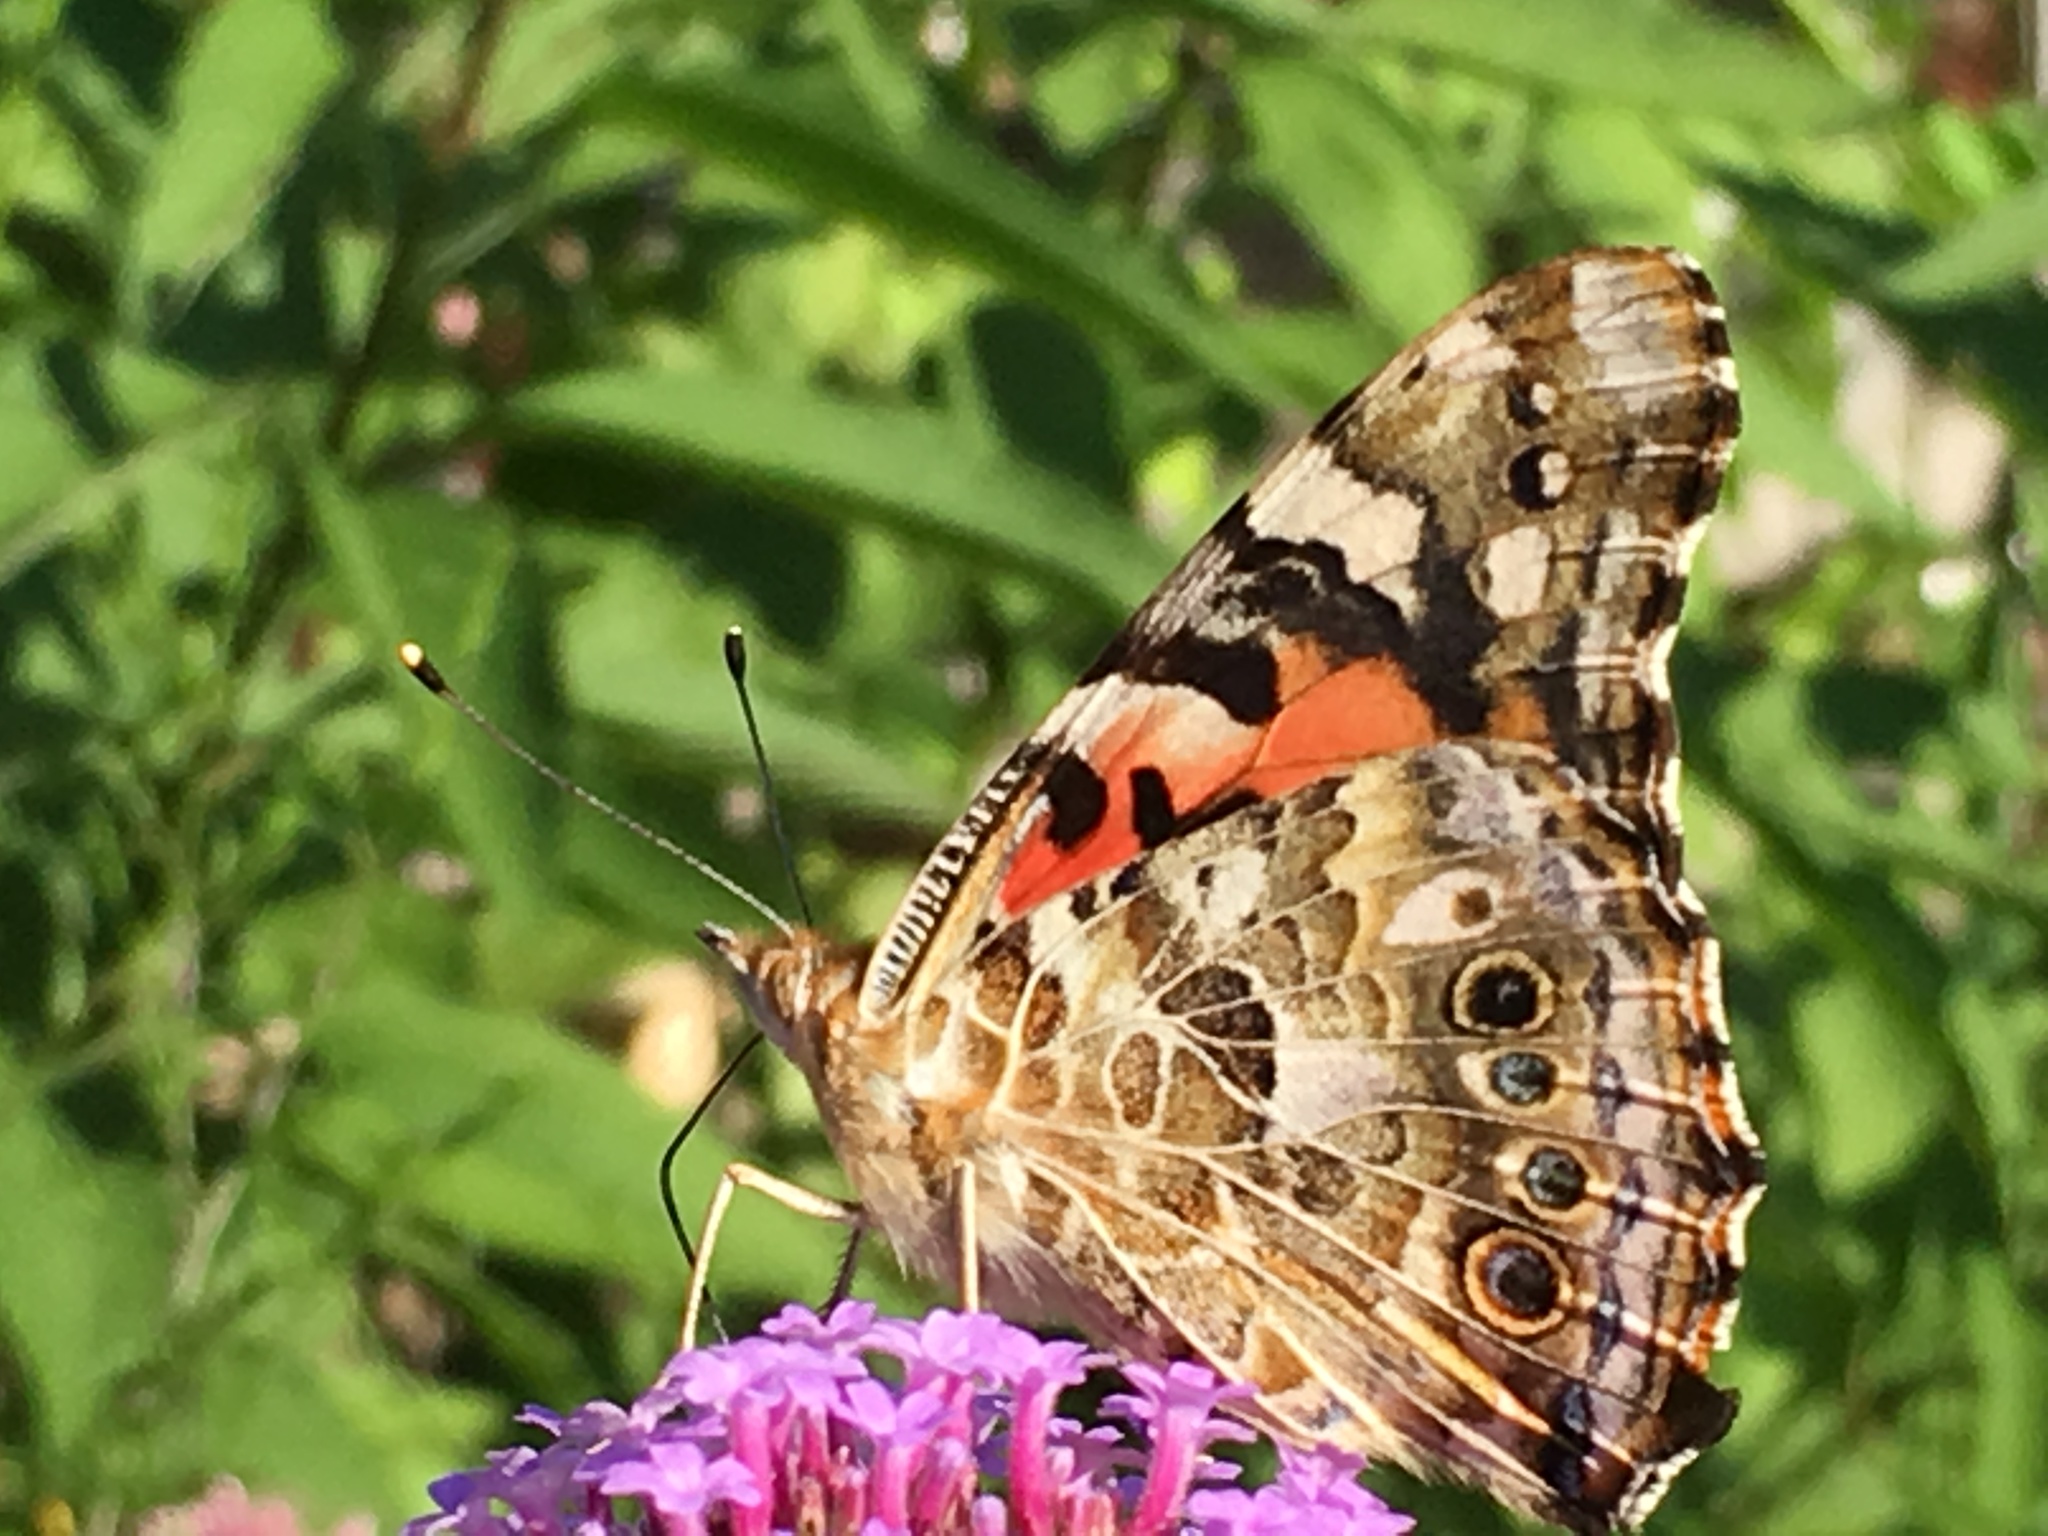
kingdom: Animalia
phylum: Arthropoda
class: Insecta
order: Lepidoptera
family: Nymphalidae
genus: Vanessa
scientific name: Vanessa cardui
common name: Painted lady
